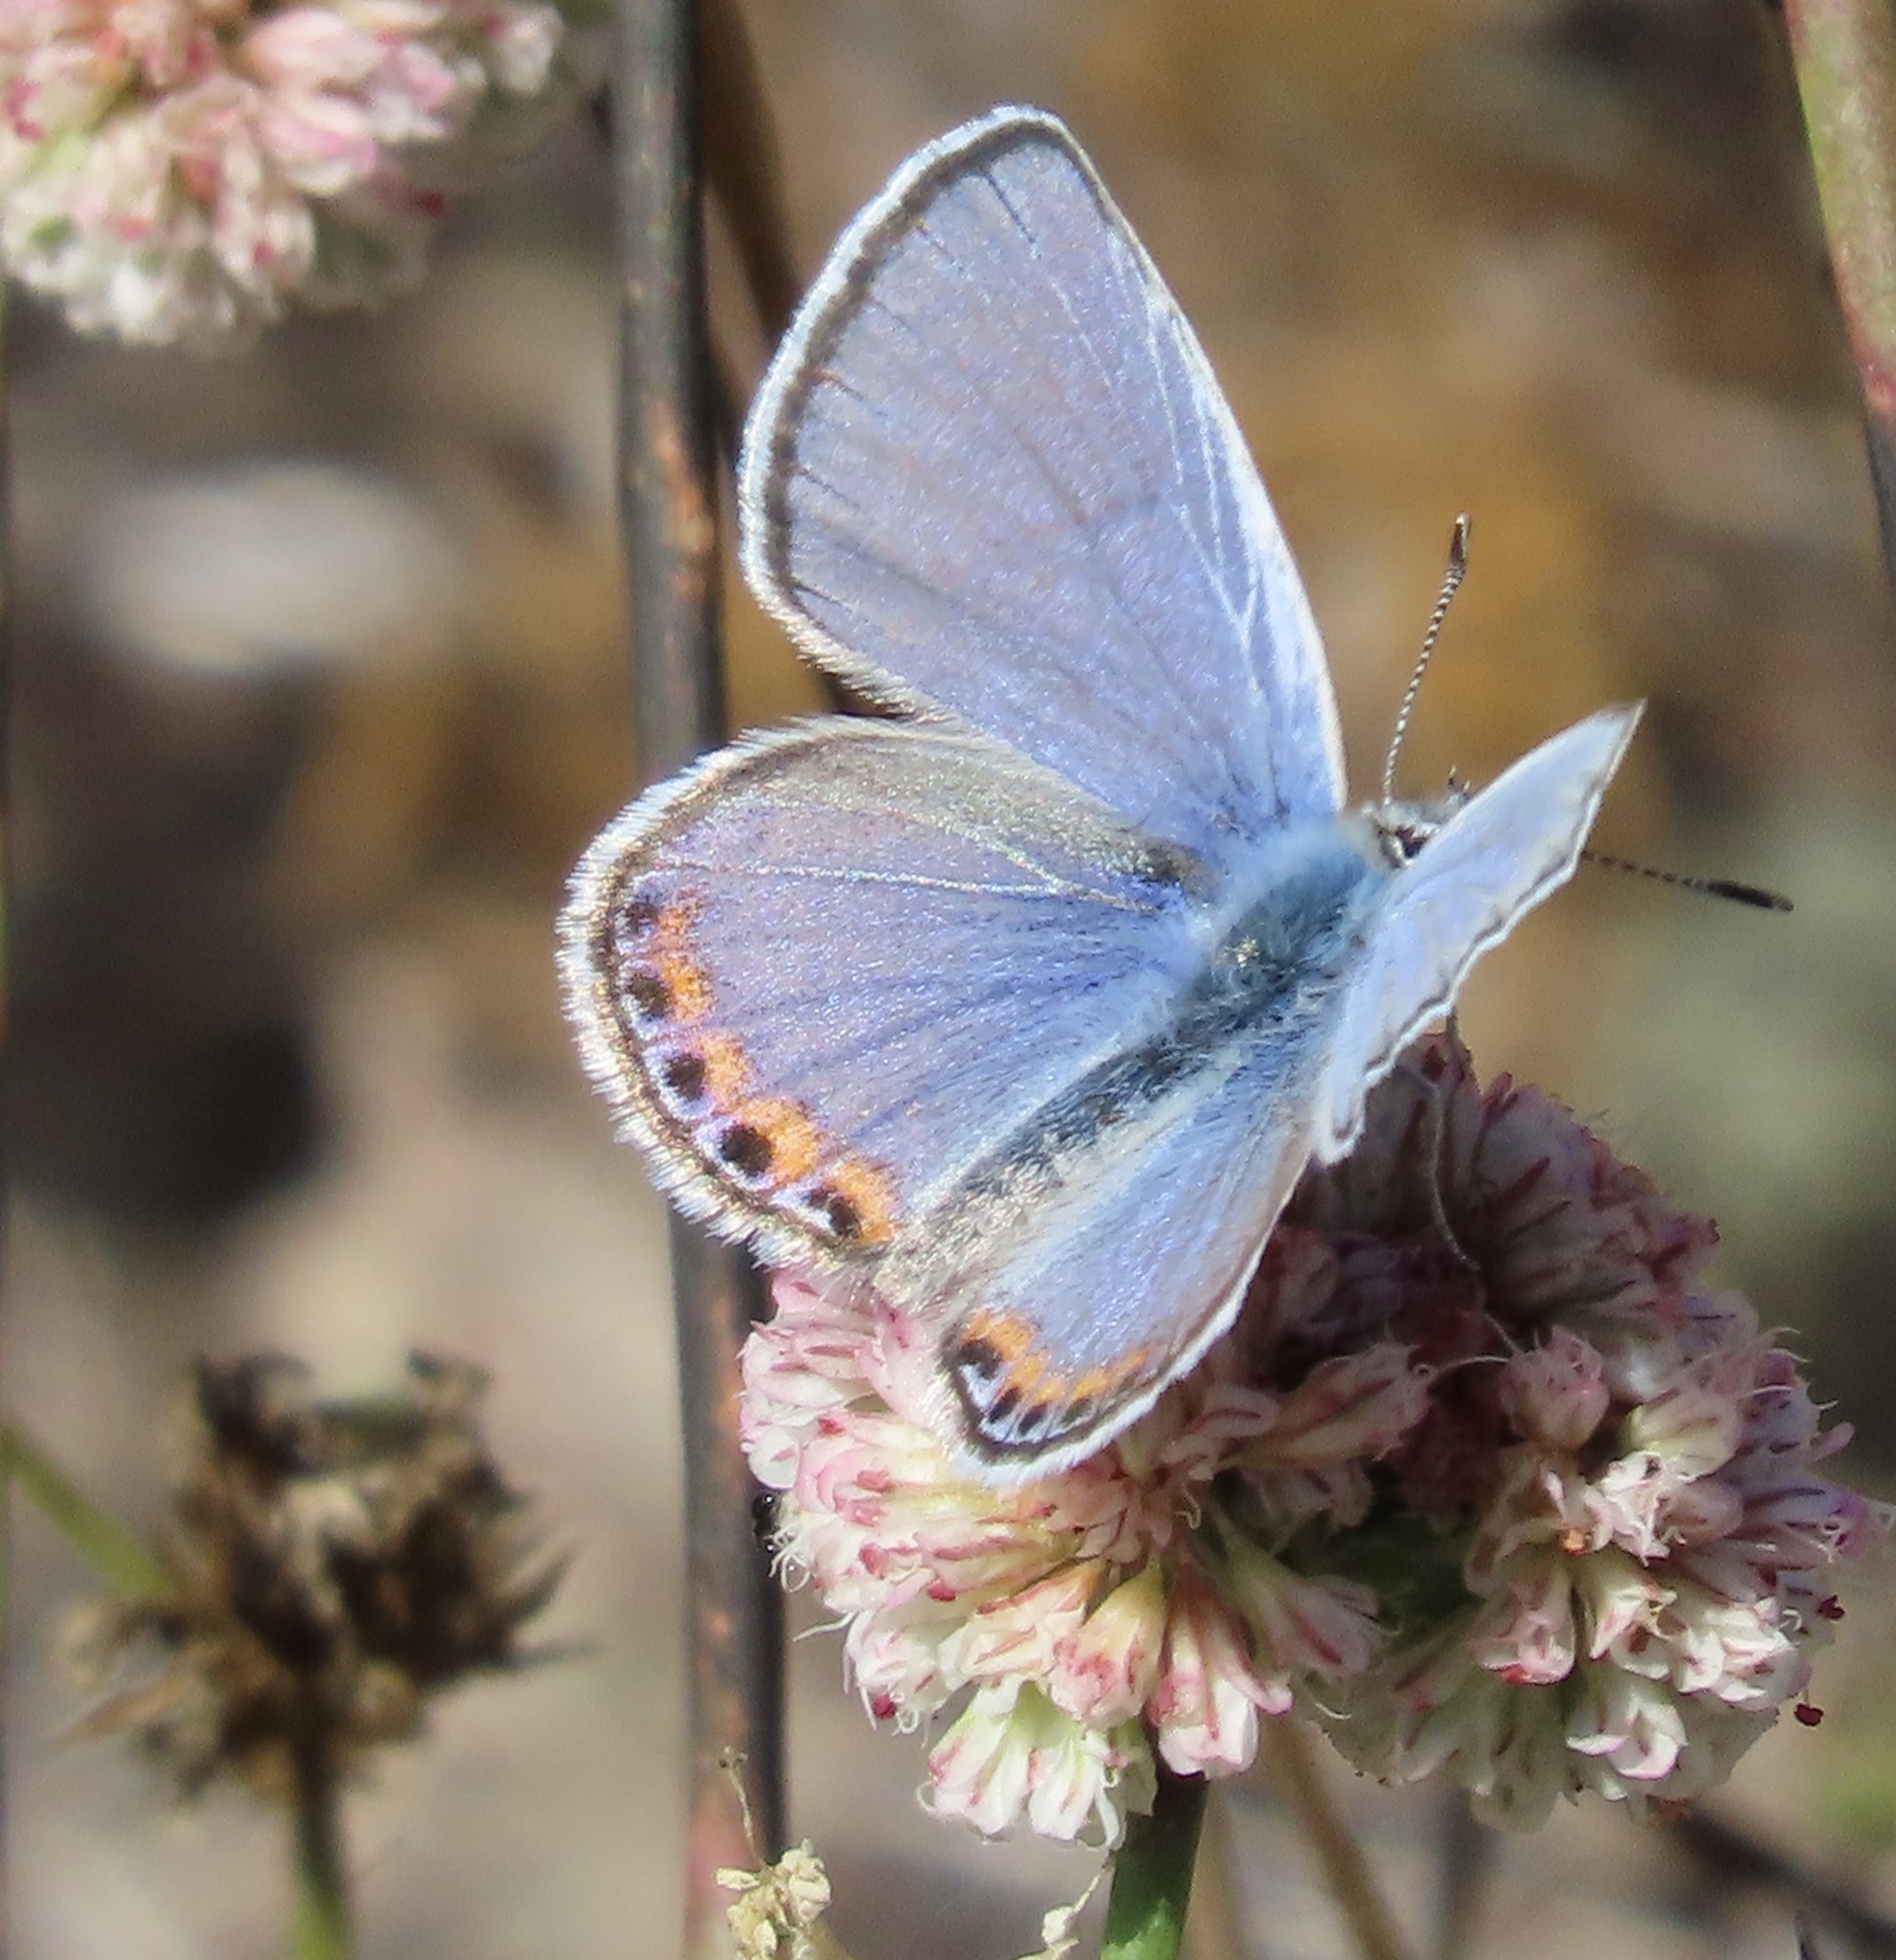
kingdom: Animalia
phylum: Arthropoda
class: Insecta
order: Lepidoptera
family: Lycaenidae
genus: Icaricia
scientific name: Icaricia acmon
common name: Acmon blue
